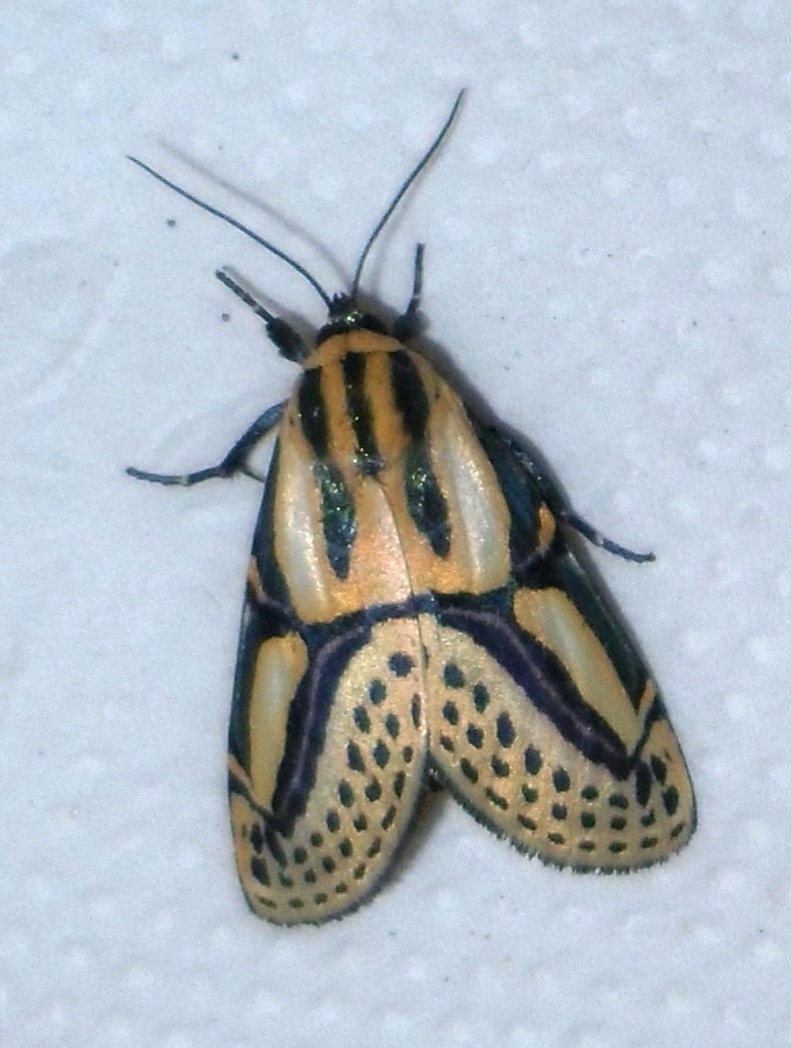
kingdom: Animalia
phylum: Arthropoda
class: Insecta
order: Lepidoptera
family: Erebidae
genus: Diphthera
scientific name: Diphthera festiva
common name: Hieroglyphic moth
